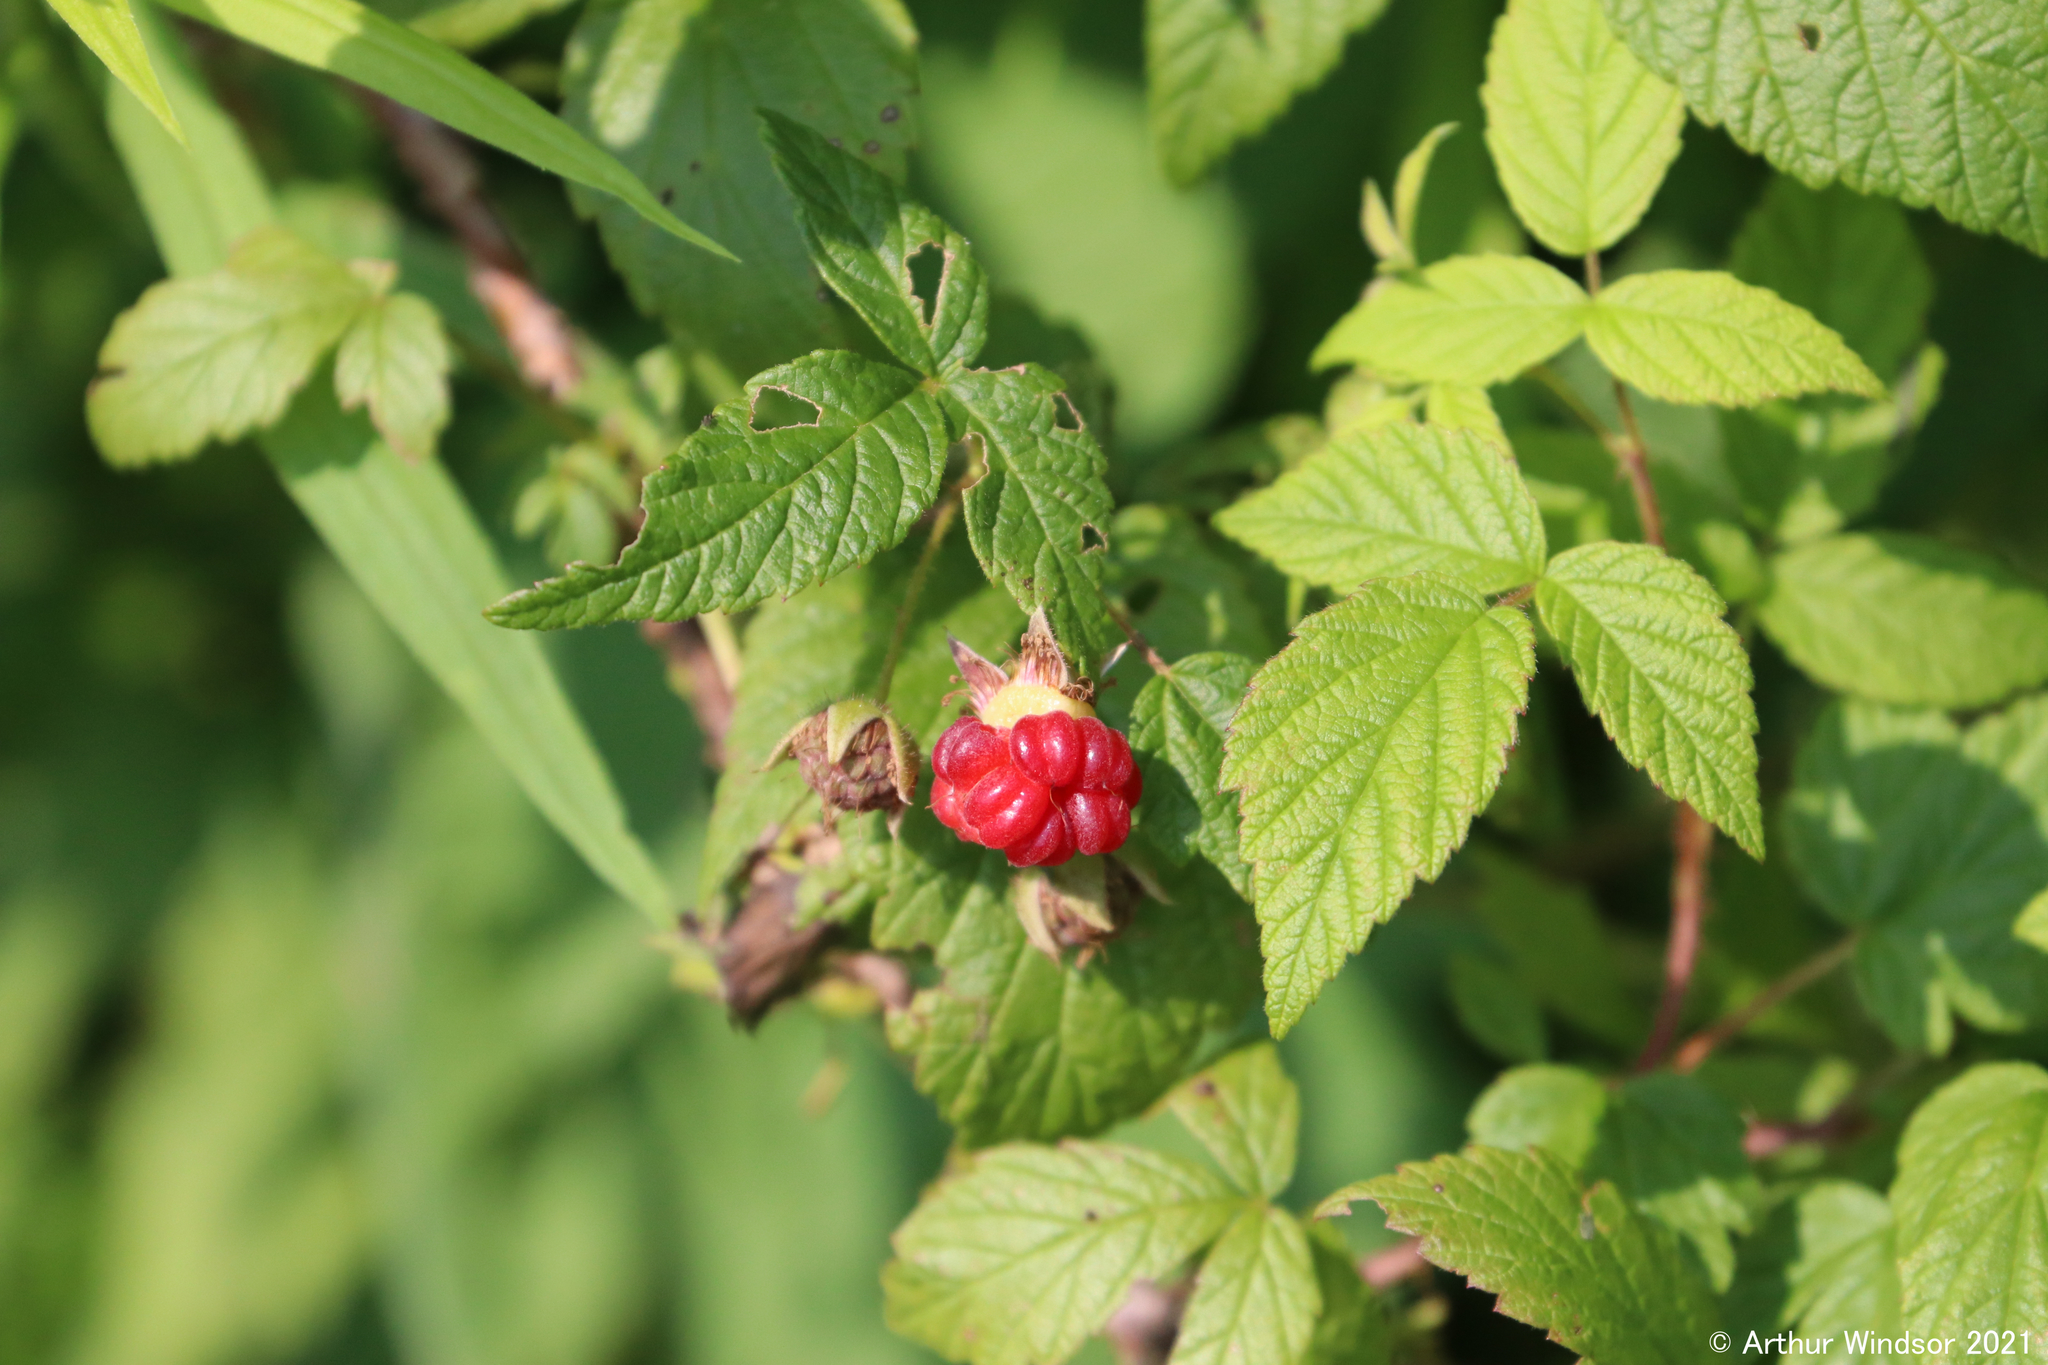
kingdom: Plantae
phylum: Tracheophyta
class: Magnoliopsida
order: Rosales
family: Rosaceae
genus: Rubus
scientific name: Rubus idaeus
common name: Raspberry
